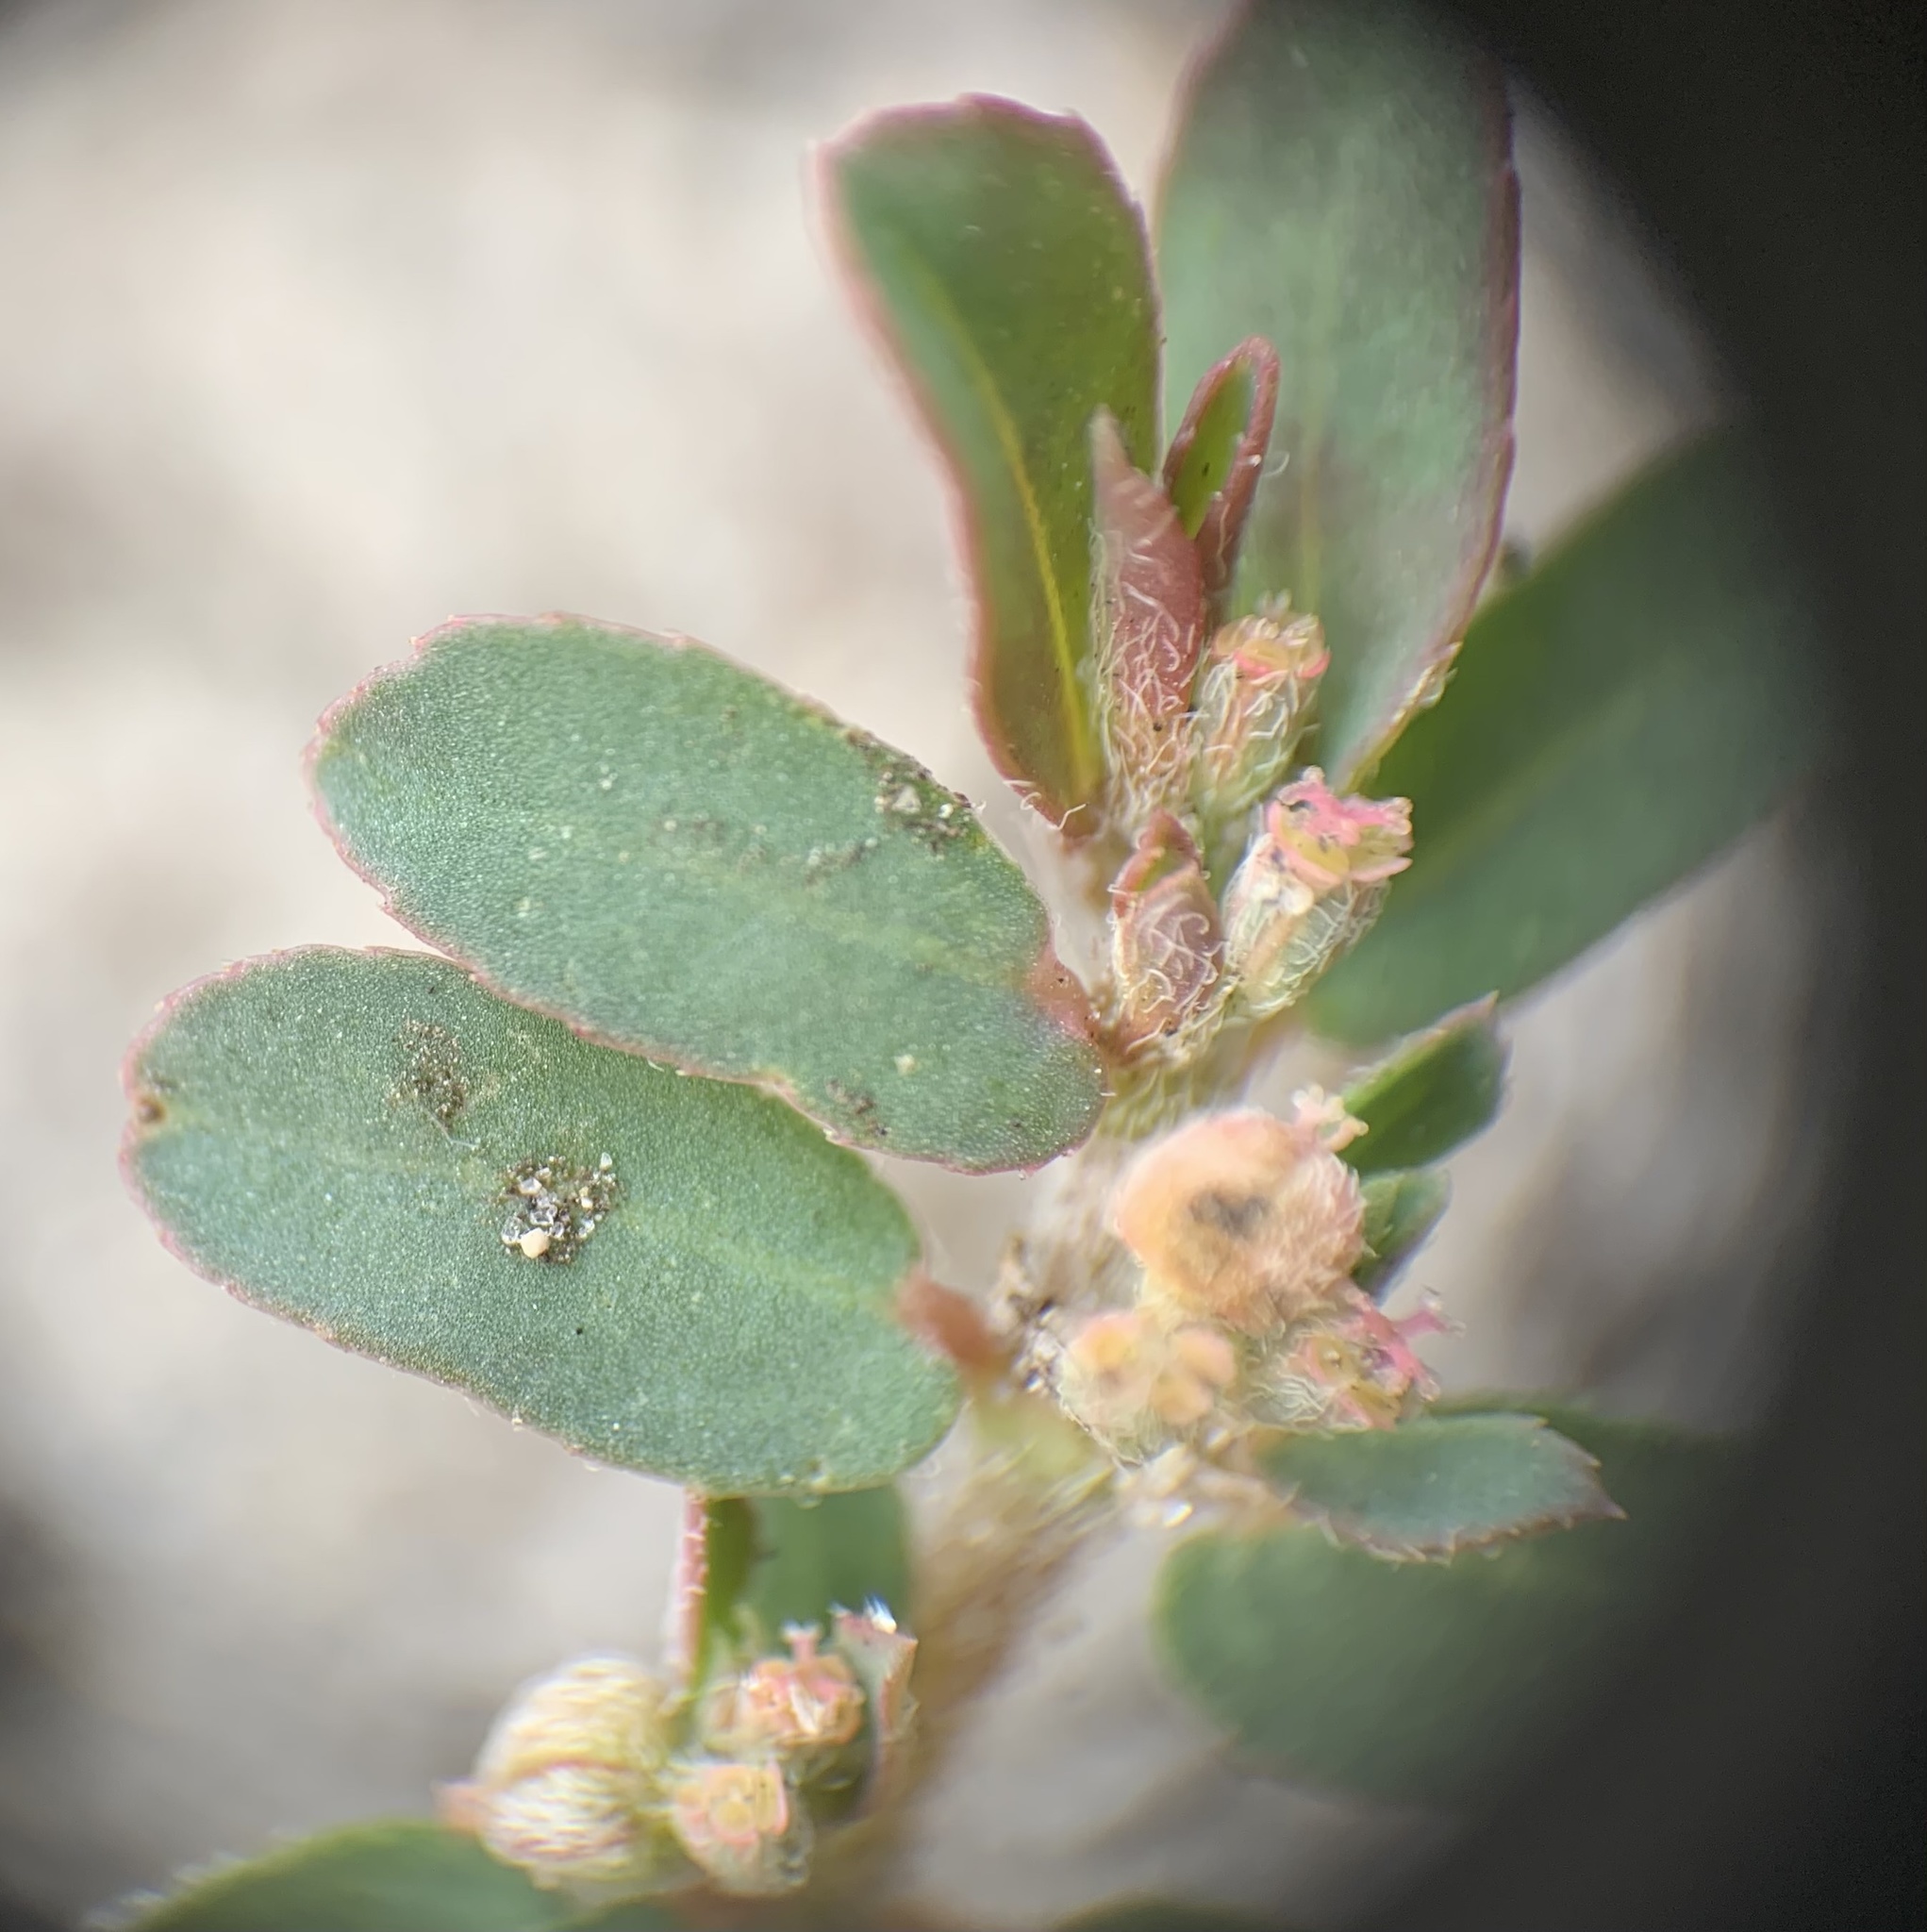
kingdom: Plantae
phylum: Tracheophyta
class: Magnoliopsida
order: Malpighiales
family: Euphorbiaceae
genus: Euphorbia
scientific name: Euphorbia maculata
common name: Spotted spurge
